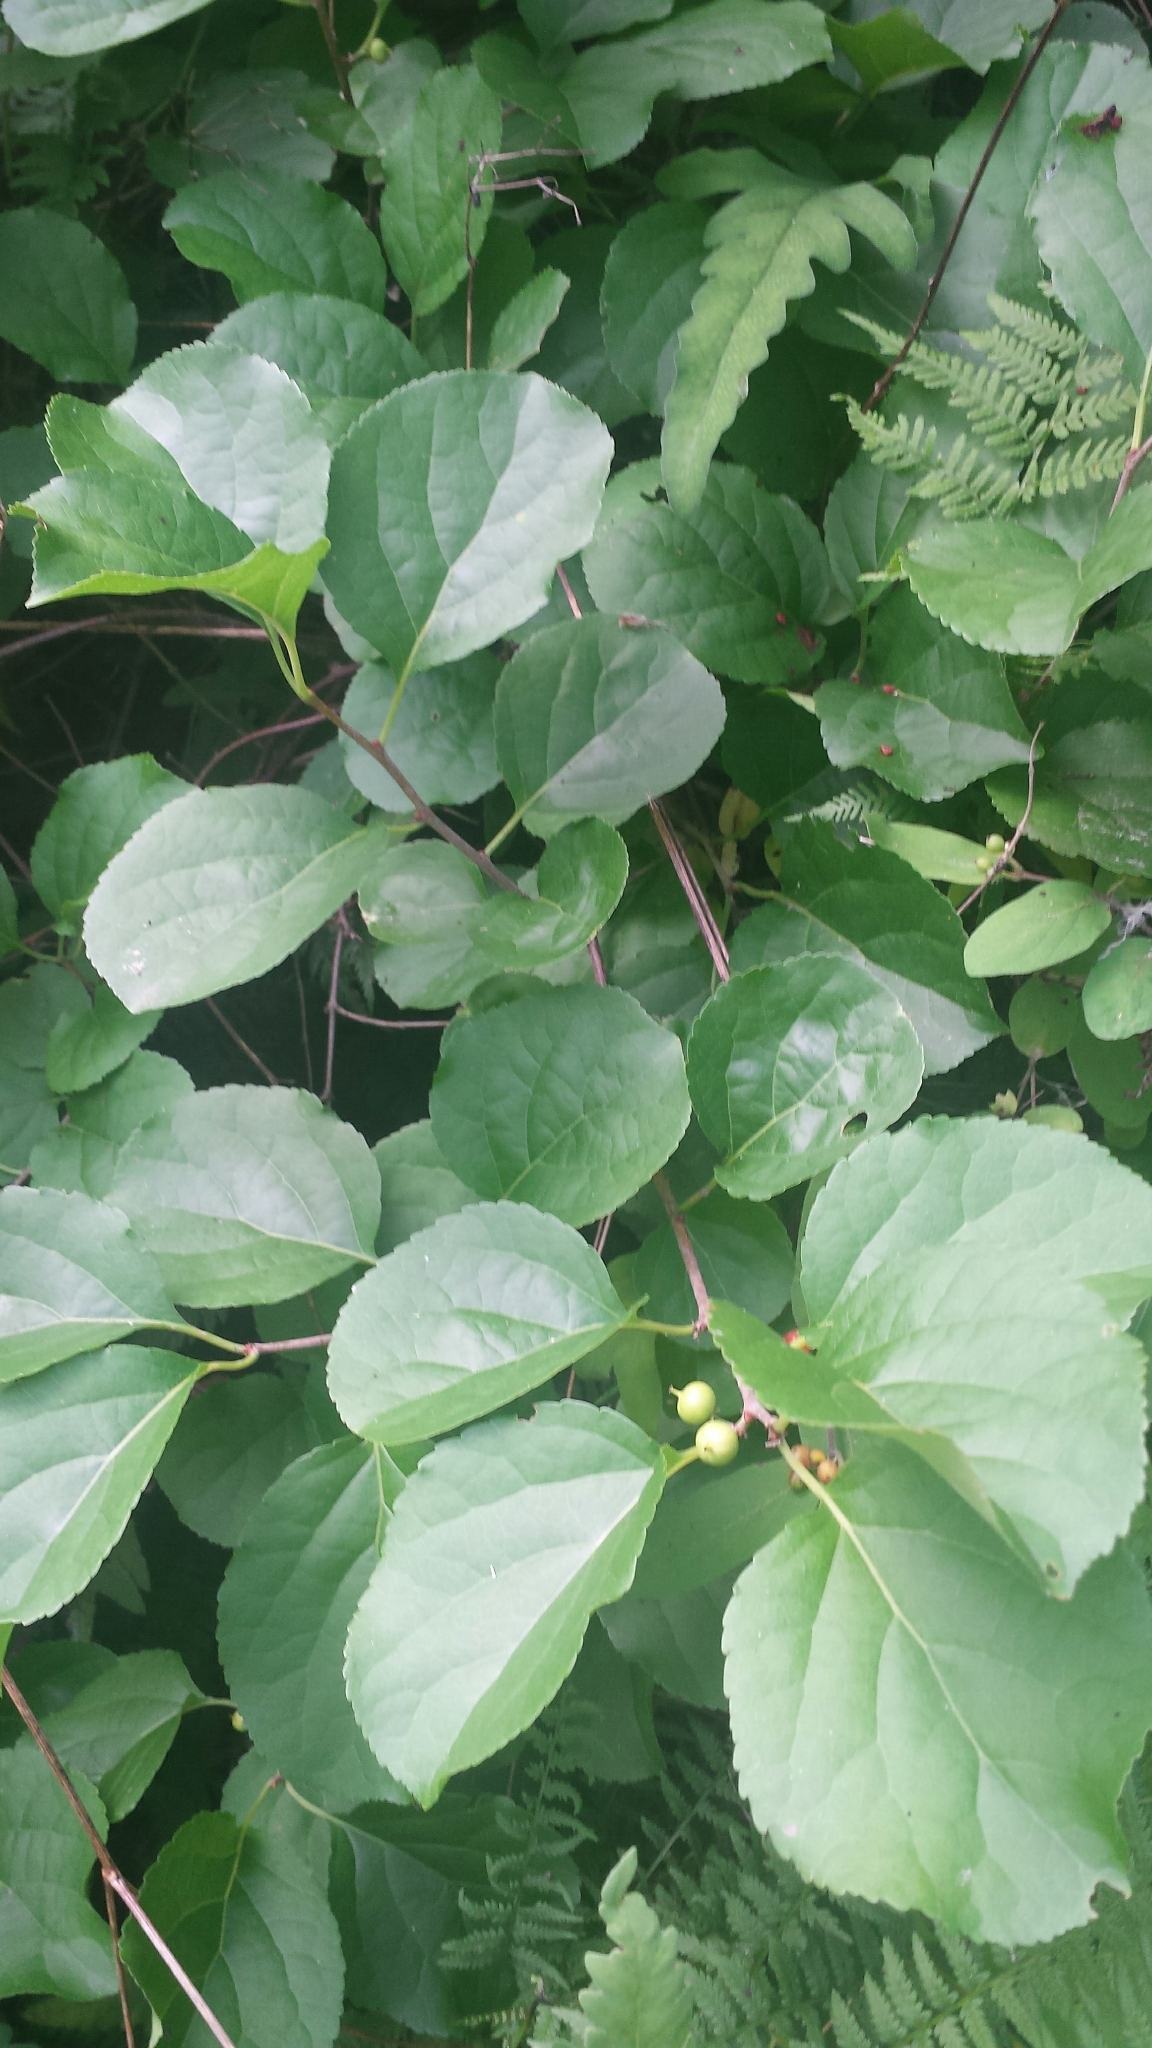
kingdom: Plantae
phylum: Tracheophyta
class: Magnoliopsida
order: Celastrales
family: Celastraceae
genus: Celastrus
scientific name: Celastrus orbiculatus
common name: Oriental bittersweet
